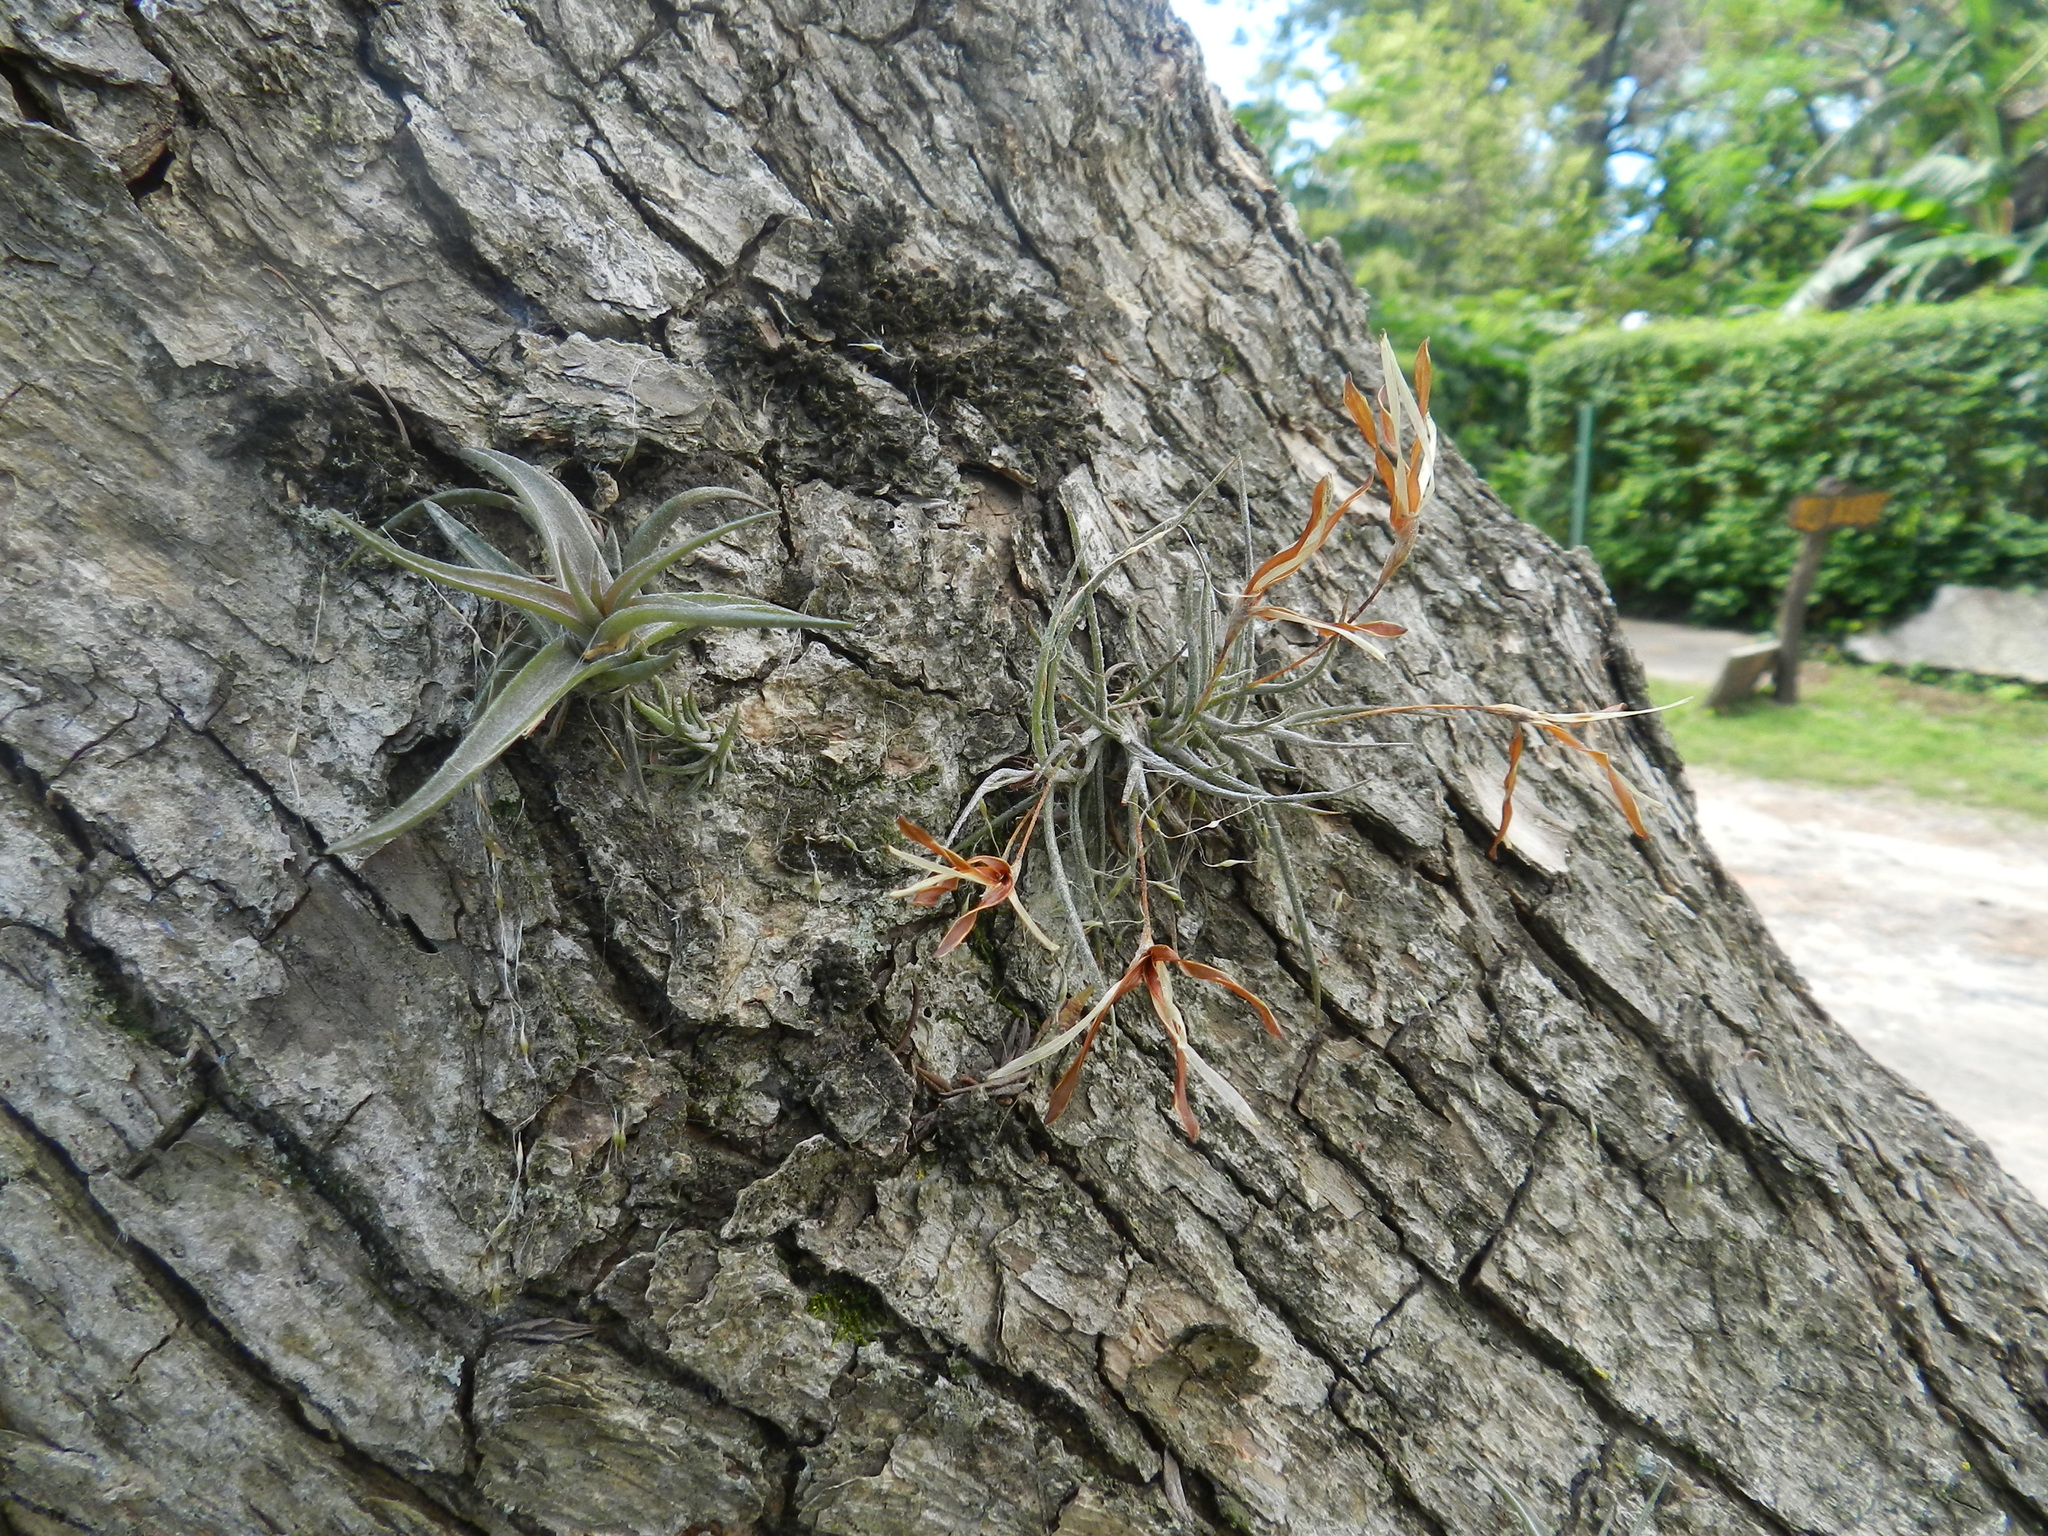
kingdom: Plantae
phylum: Tracheophyta
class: Liliopsida
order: Poales
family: Bromeliaceae
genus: Tillandsia
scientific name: Tillandsia aeranthos
